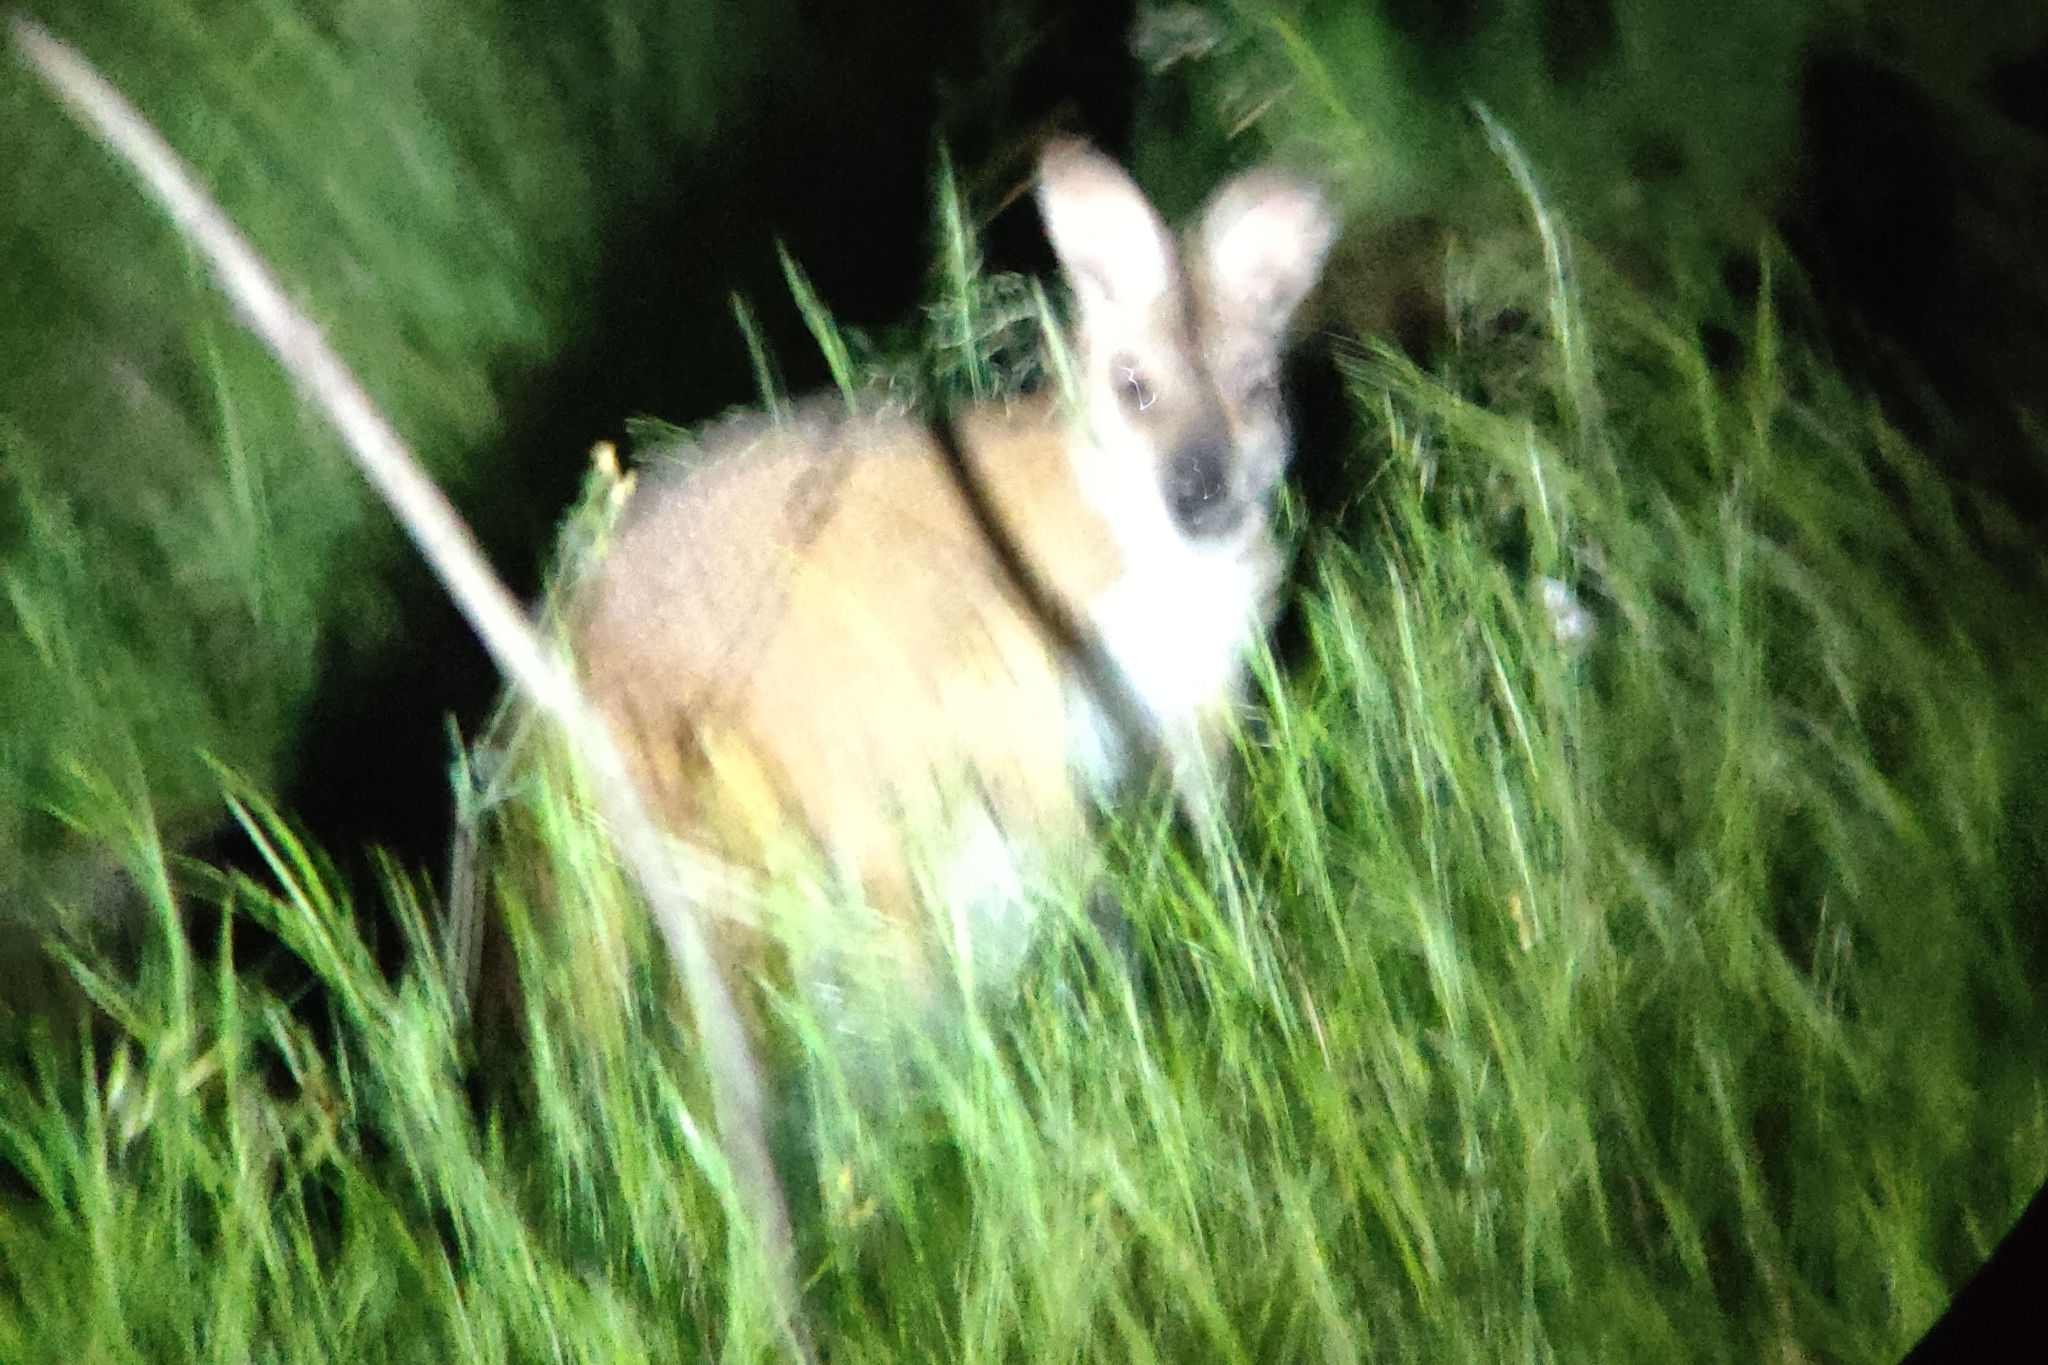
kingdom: Animalia
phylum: Chordata
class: Mammalia
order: Diprotodontia
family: Macropodidae
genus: Notamacropus
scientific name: Notamacropus rufogriseus
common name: Red-necked wallaby
